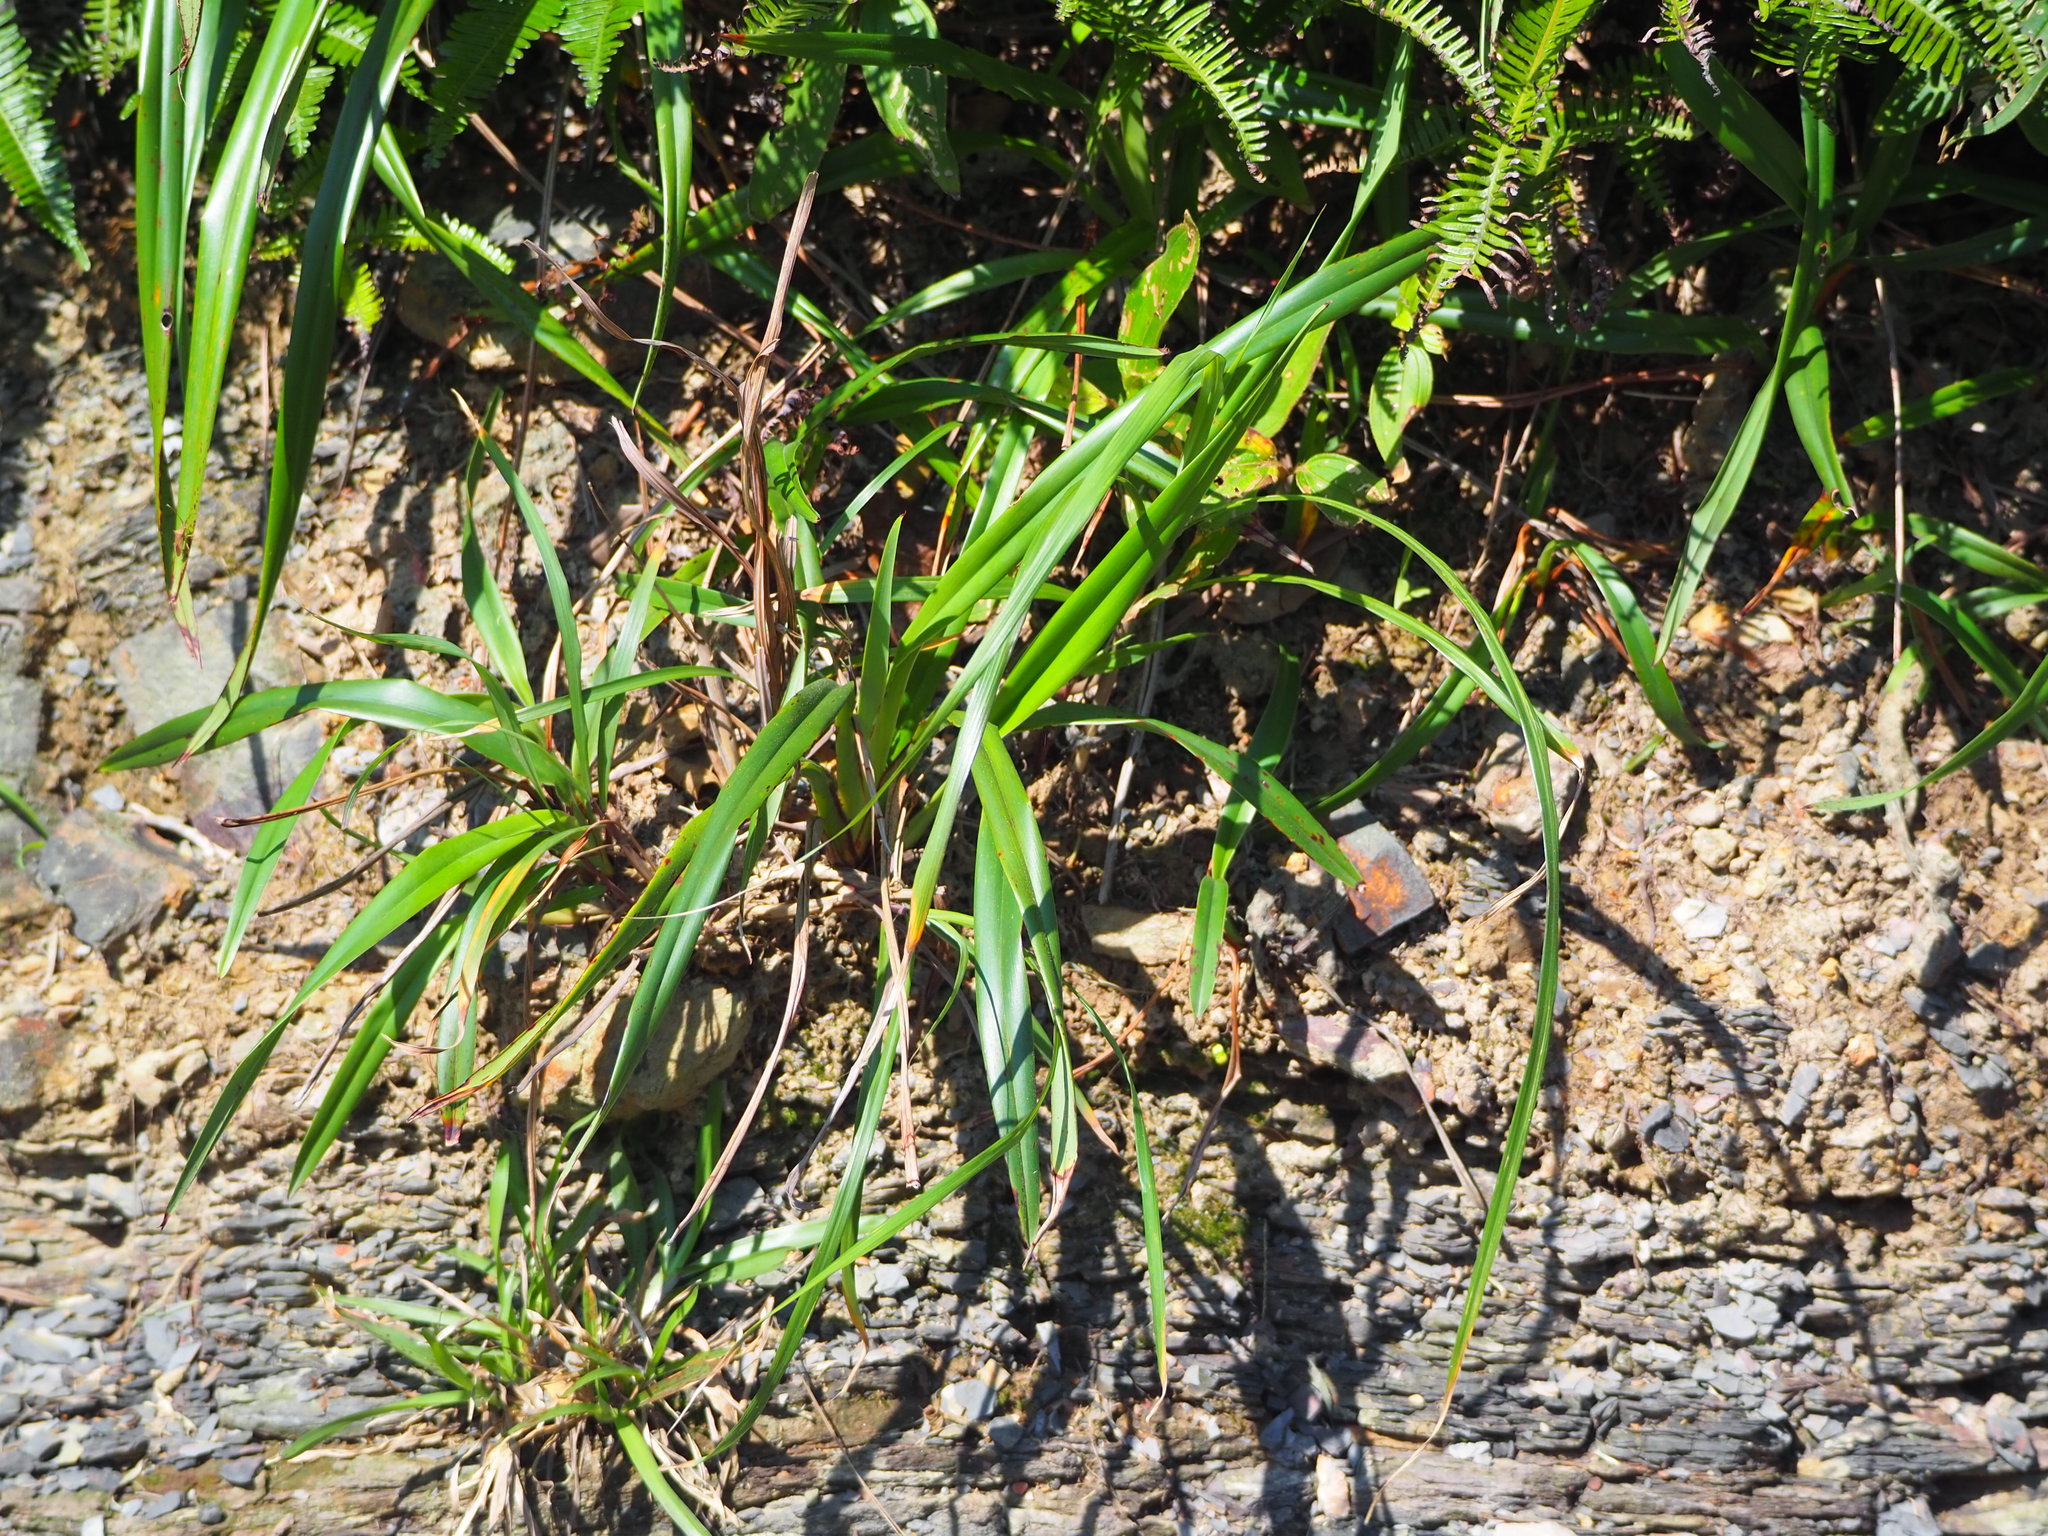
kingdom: Plantae
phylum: Tracheophyta
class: Liliopsida
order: Asparagales
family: Asphodelaceae
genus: Dianella
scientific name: Dianella ensifolia
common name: New zealand lilyplant
